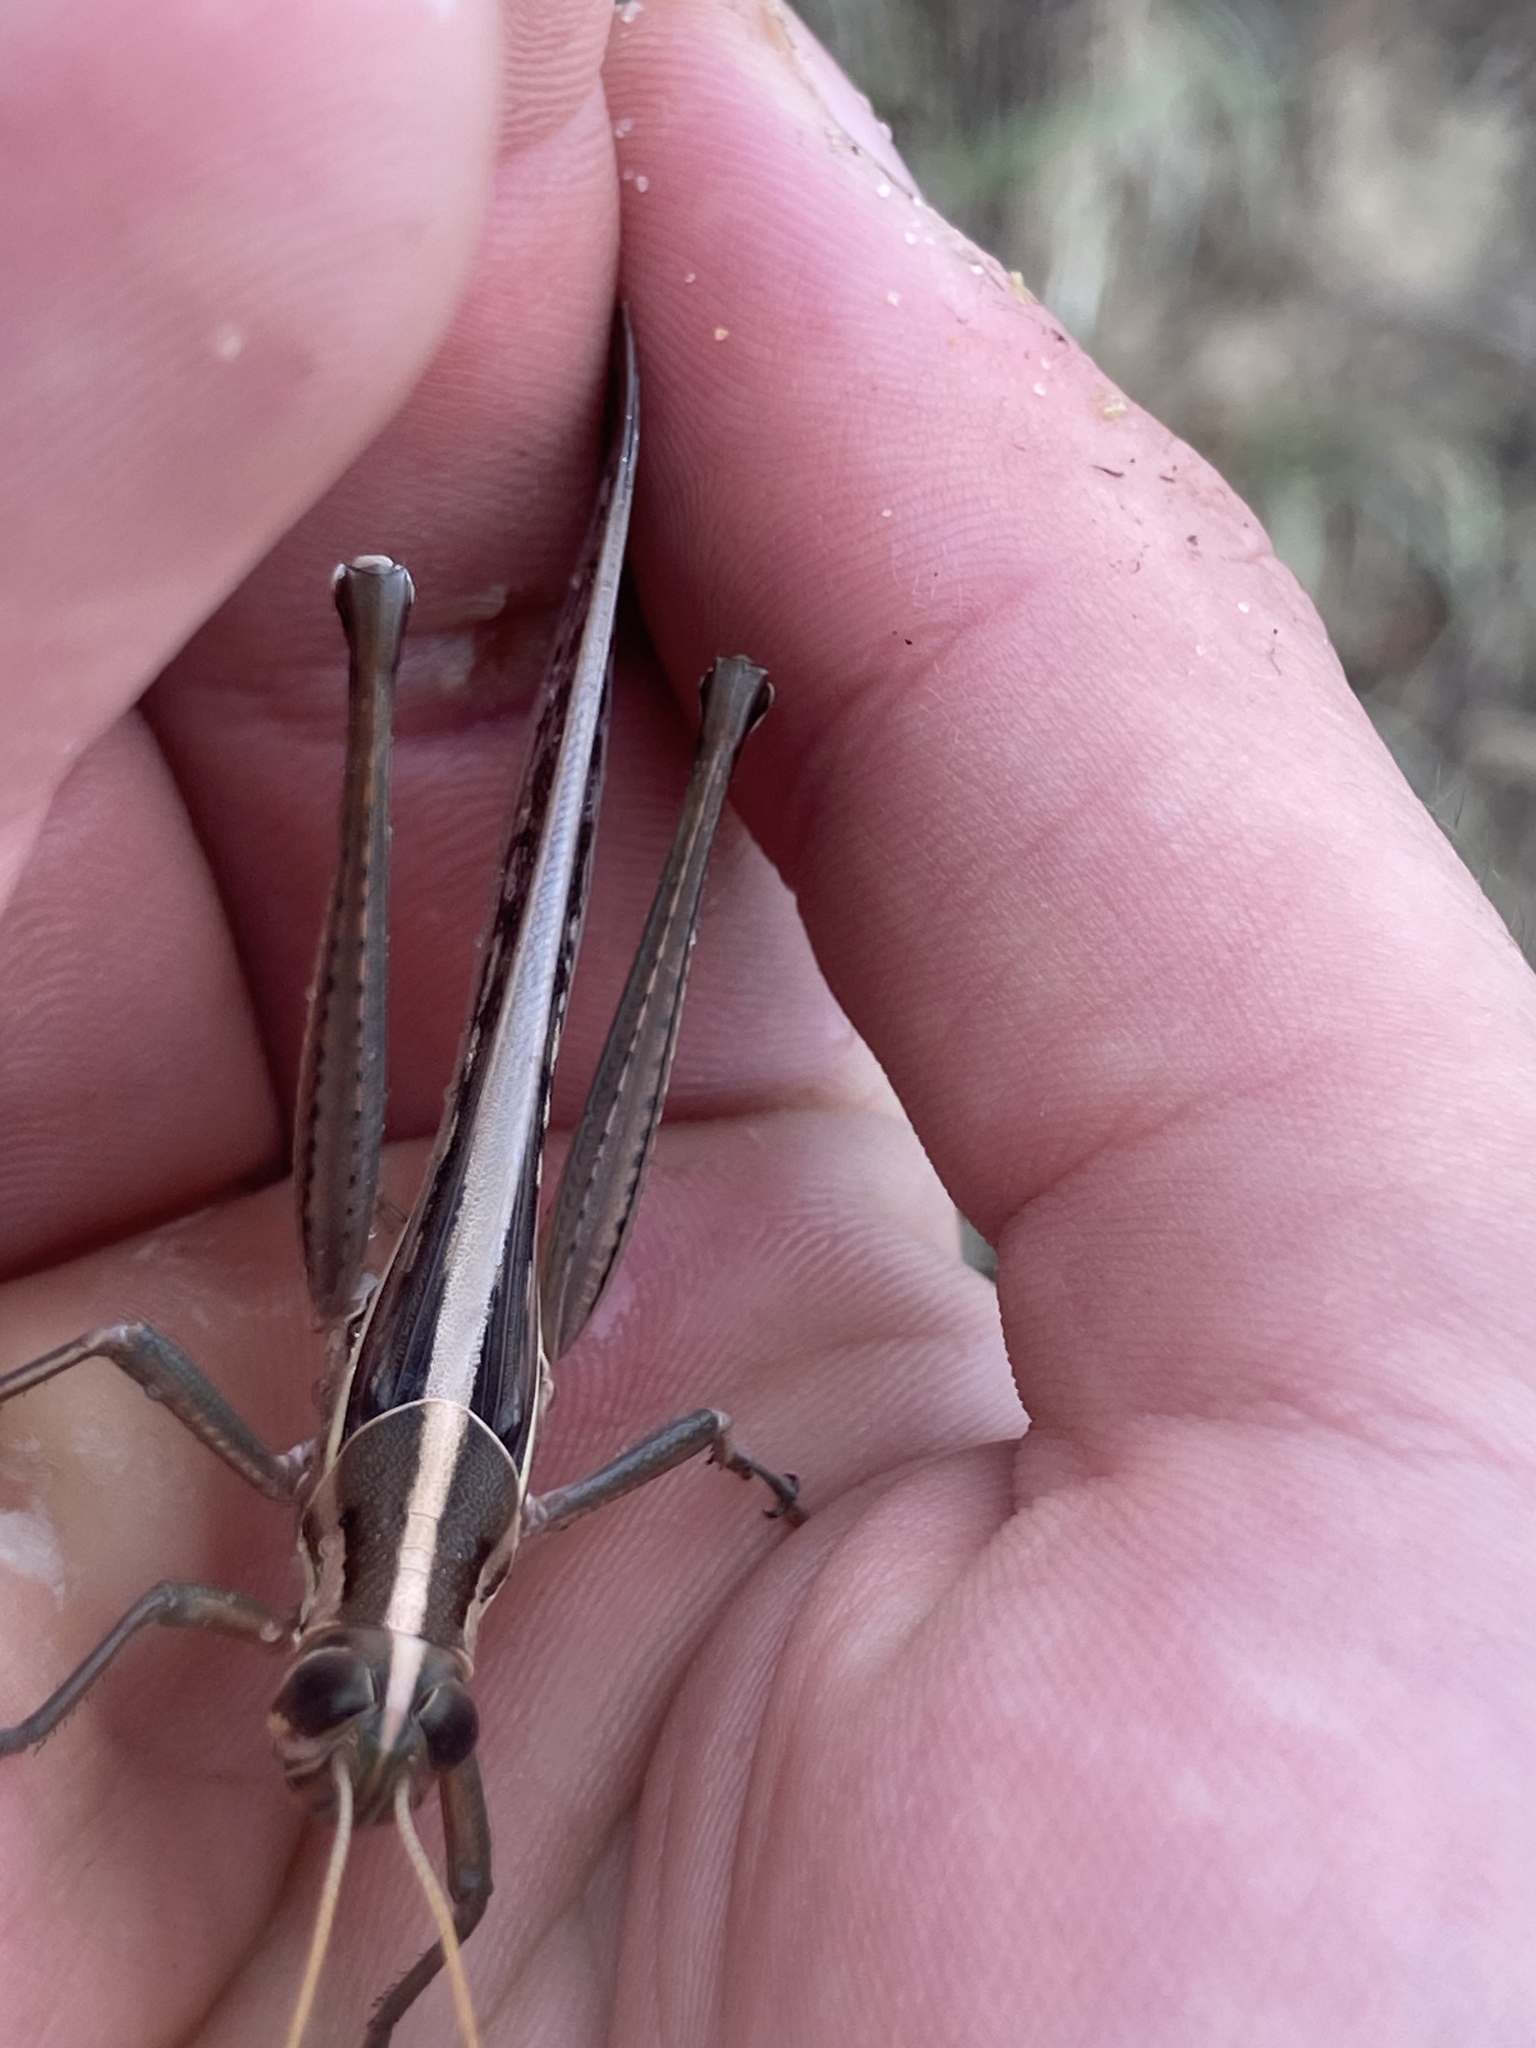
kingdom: Animalia
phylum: Arthropoda
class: Insecta
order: Orthoptera
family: Acrididae
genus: Austracris
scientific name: Austracris guttulosa
